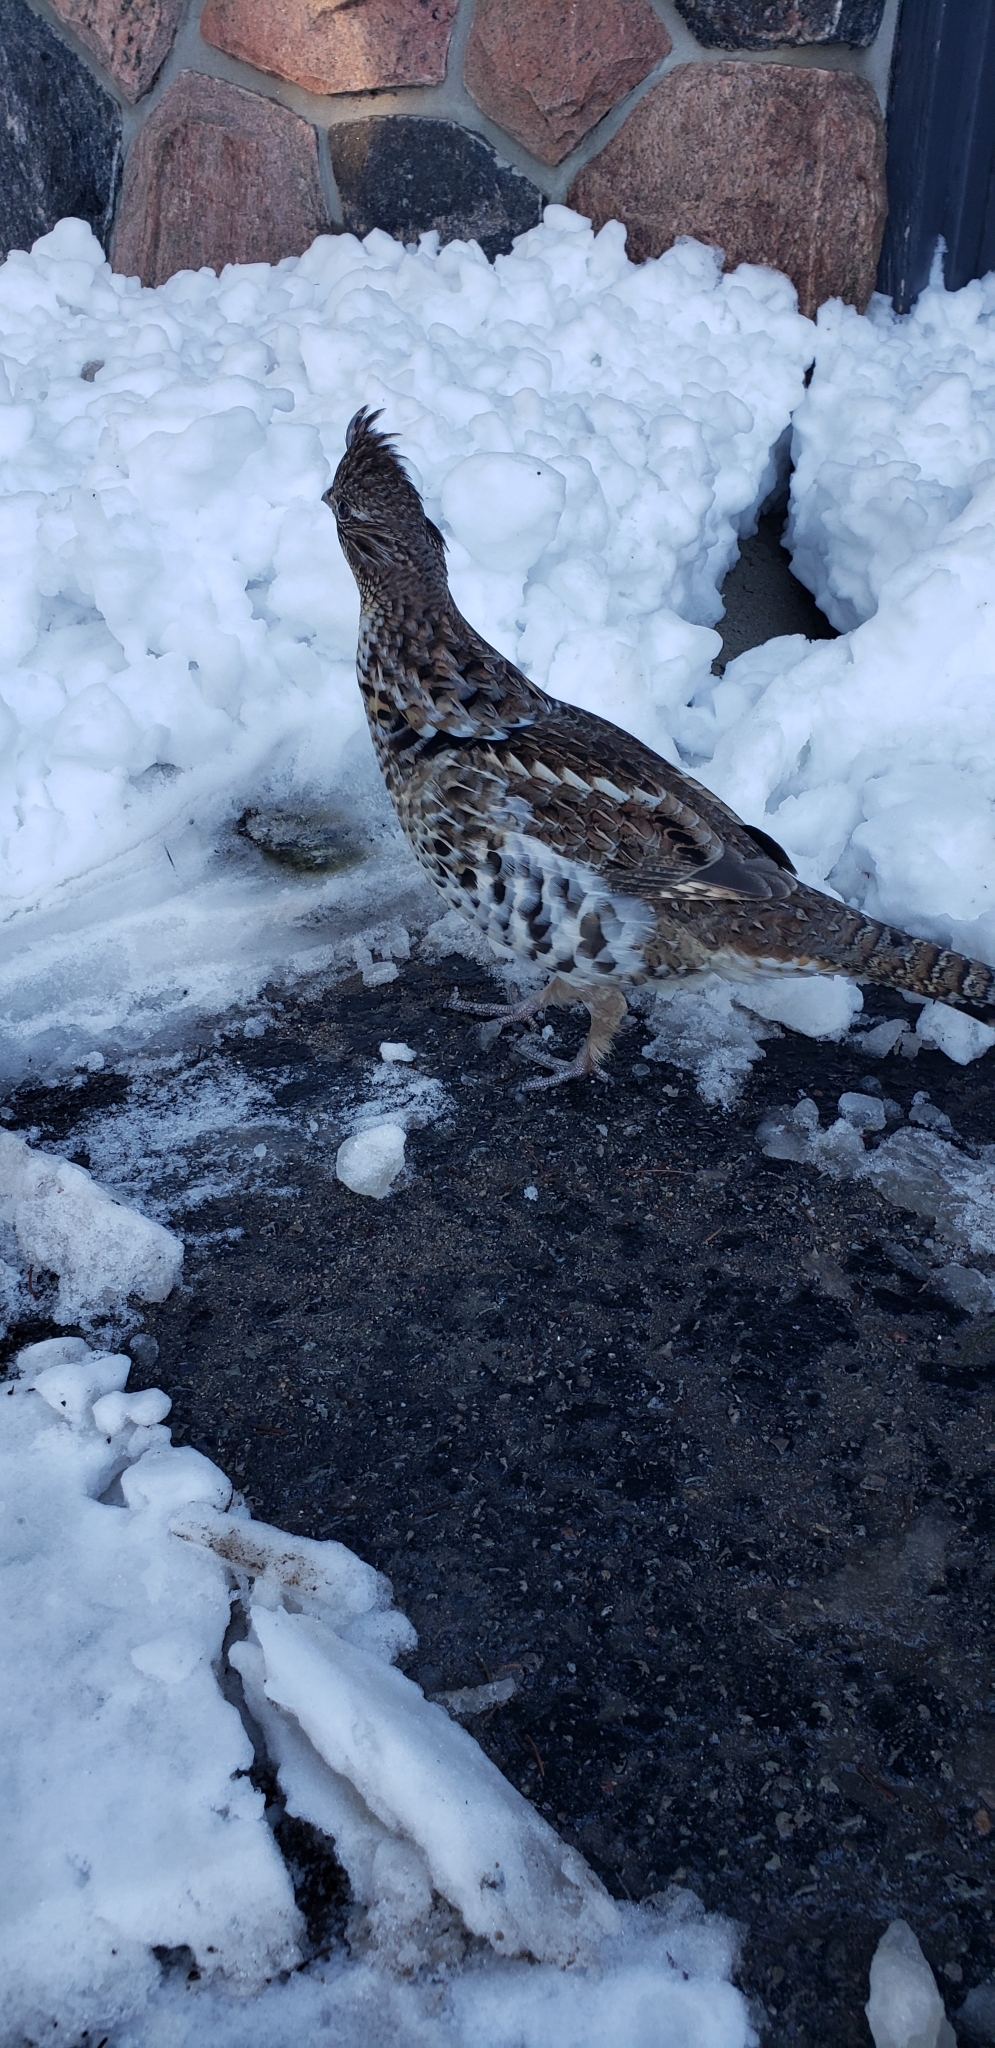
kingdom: Animalia
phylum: Chordata
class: Aves
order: Galliformes
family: Phasianidae
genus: Bonasa
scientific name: Bonasa umbellus
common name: Ruffed grouse
